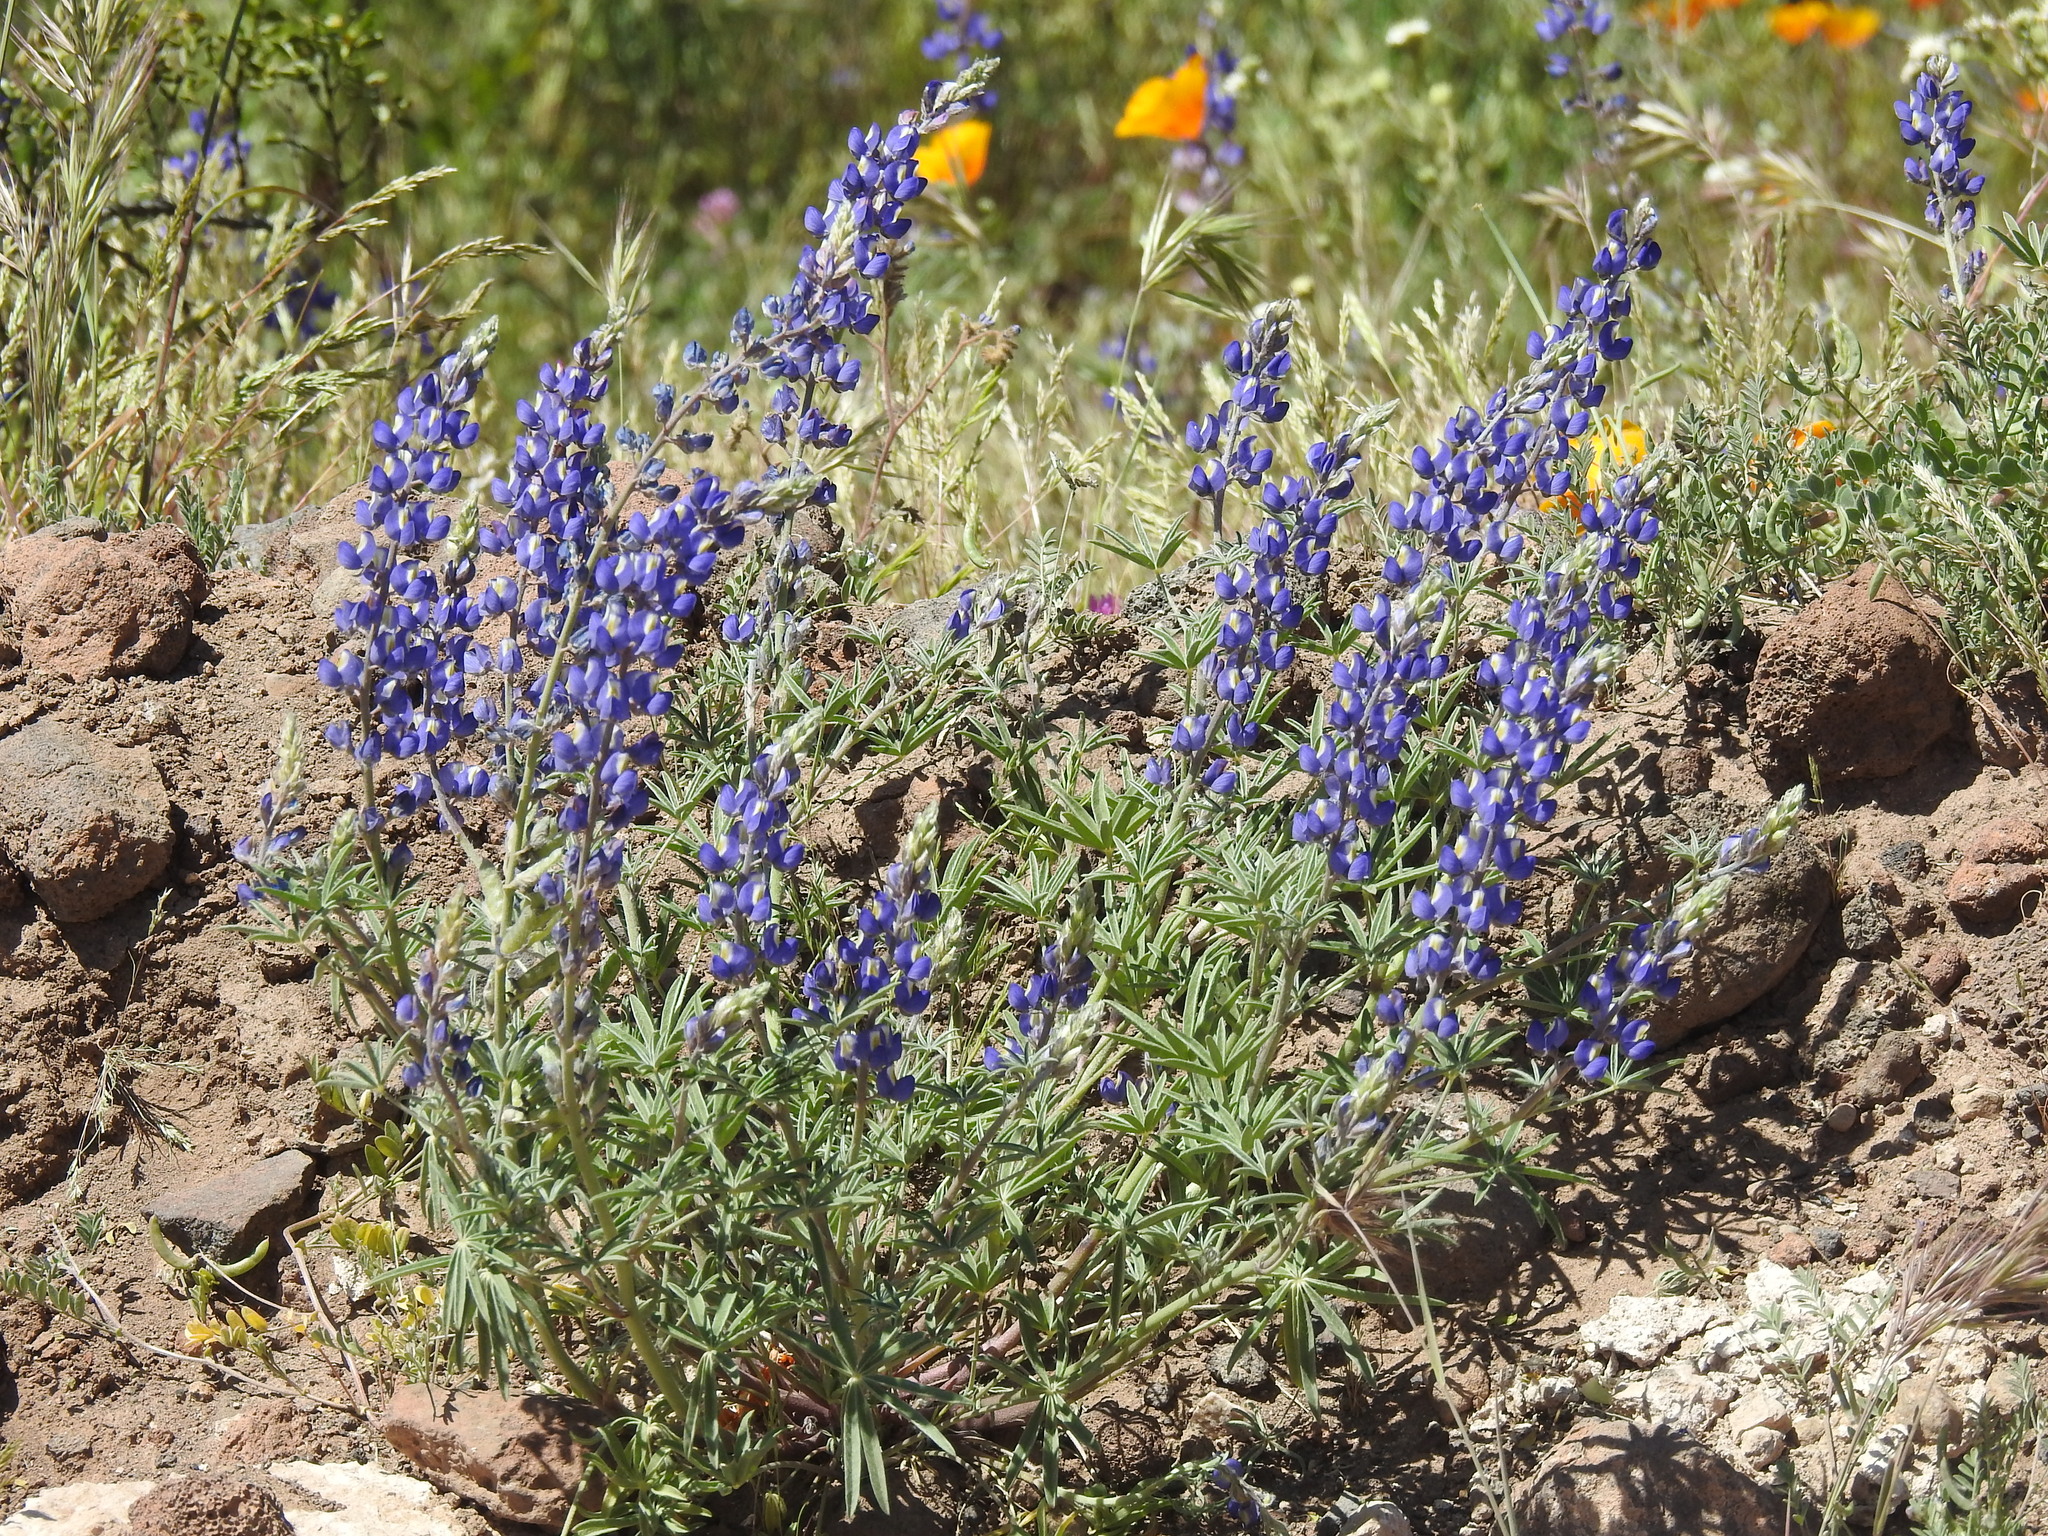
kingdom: Plantae
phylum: Tracheophyta
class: Magnoliopsida
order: Fabales
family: Fabaceae
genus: Lupinus
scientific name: Lupinus sparsiflorus
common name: Coulter's lupine
